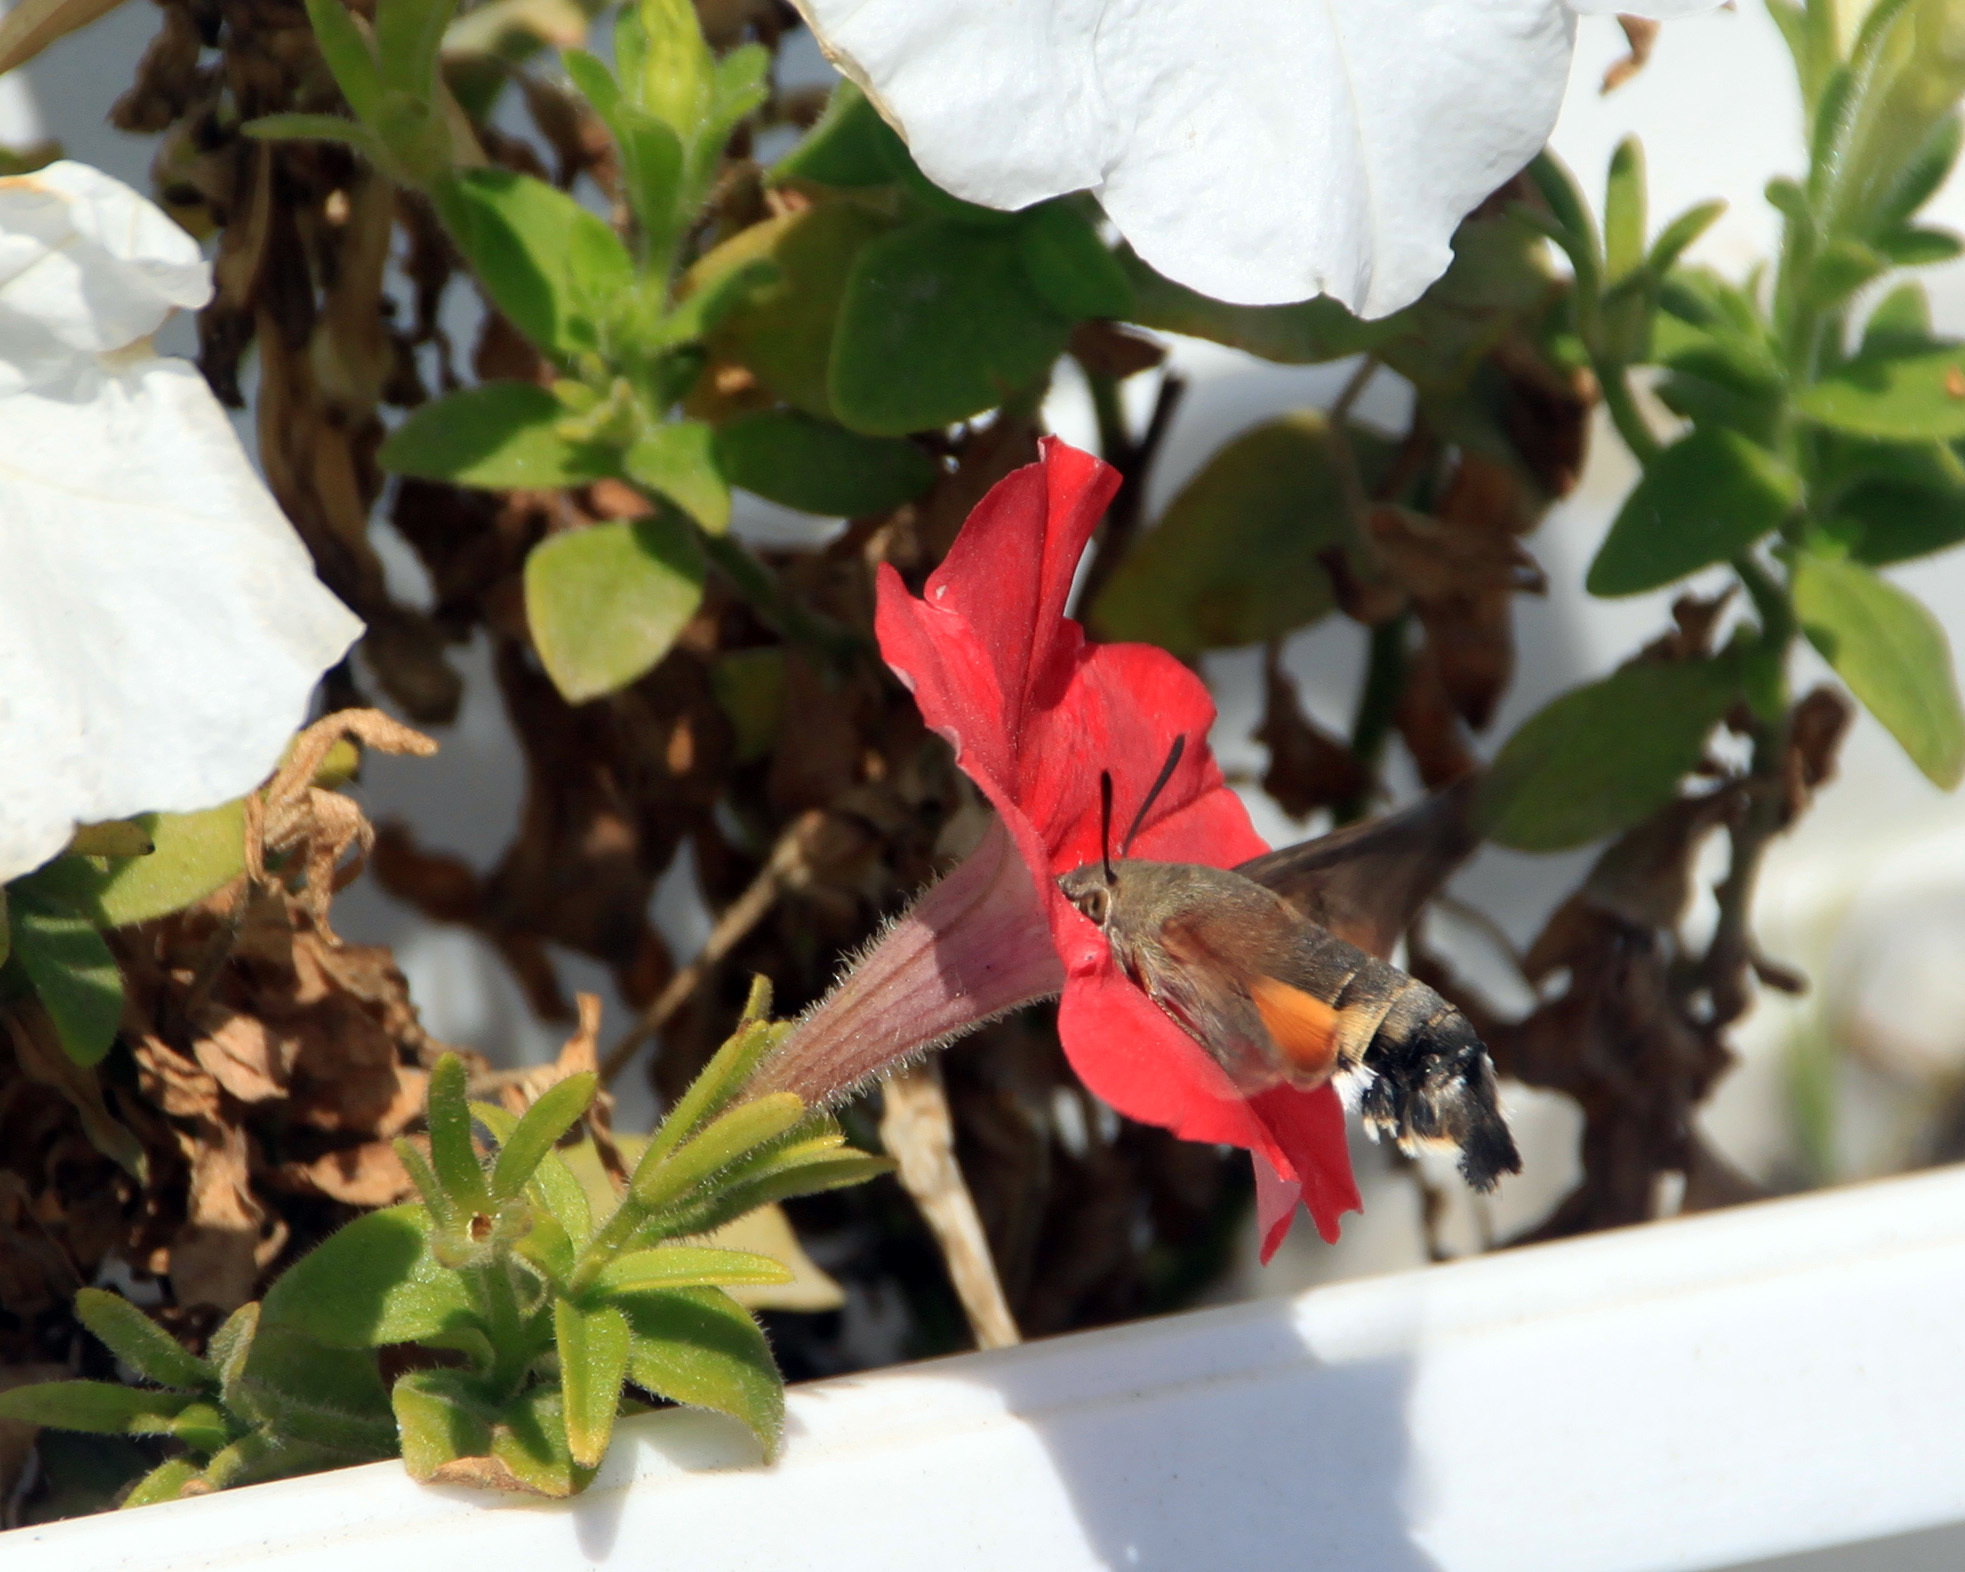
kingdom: Animalia
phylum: Arthropoda
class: Insecta
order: Lepidoptera
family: Sphingidae
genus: Macroglossum
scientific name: Macroglossum stellatarum
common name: Humming-bird hawk-moth
